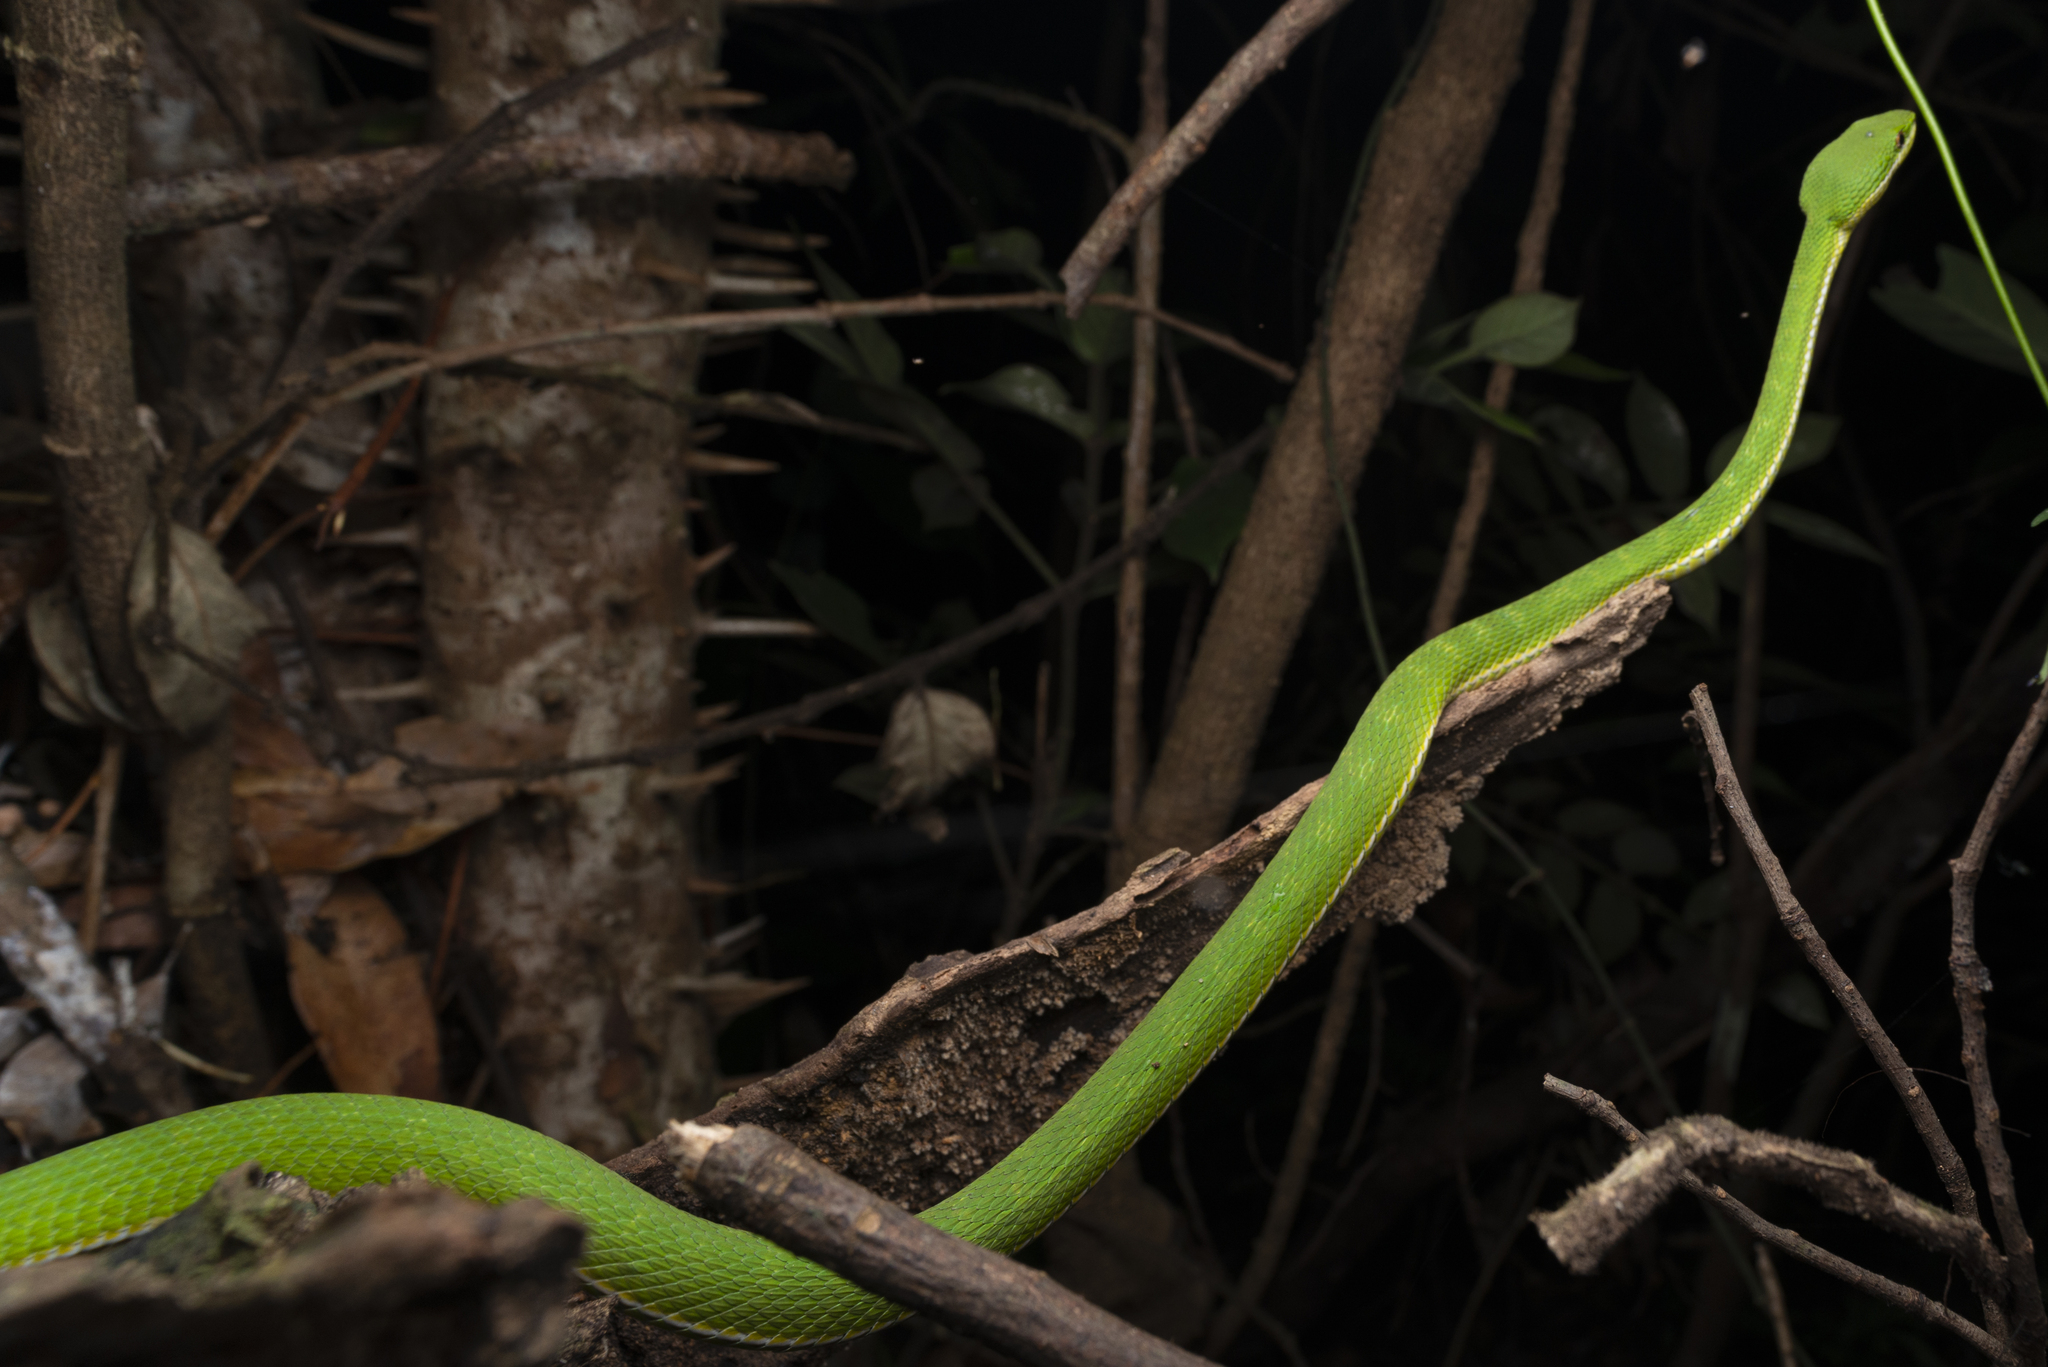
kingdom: Animalia
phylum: Chordata
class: Squamata
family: Viperidae
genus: Trimeresurus
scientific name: Trimeresurus albolabris
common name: White-lipped pitviper
